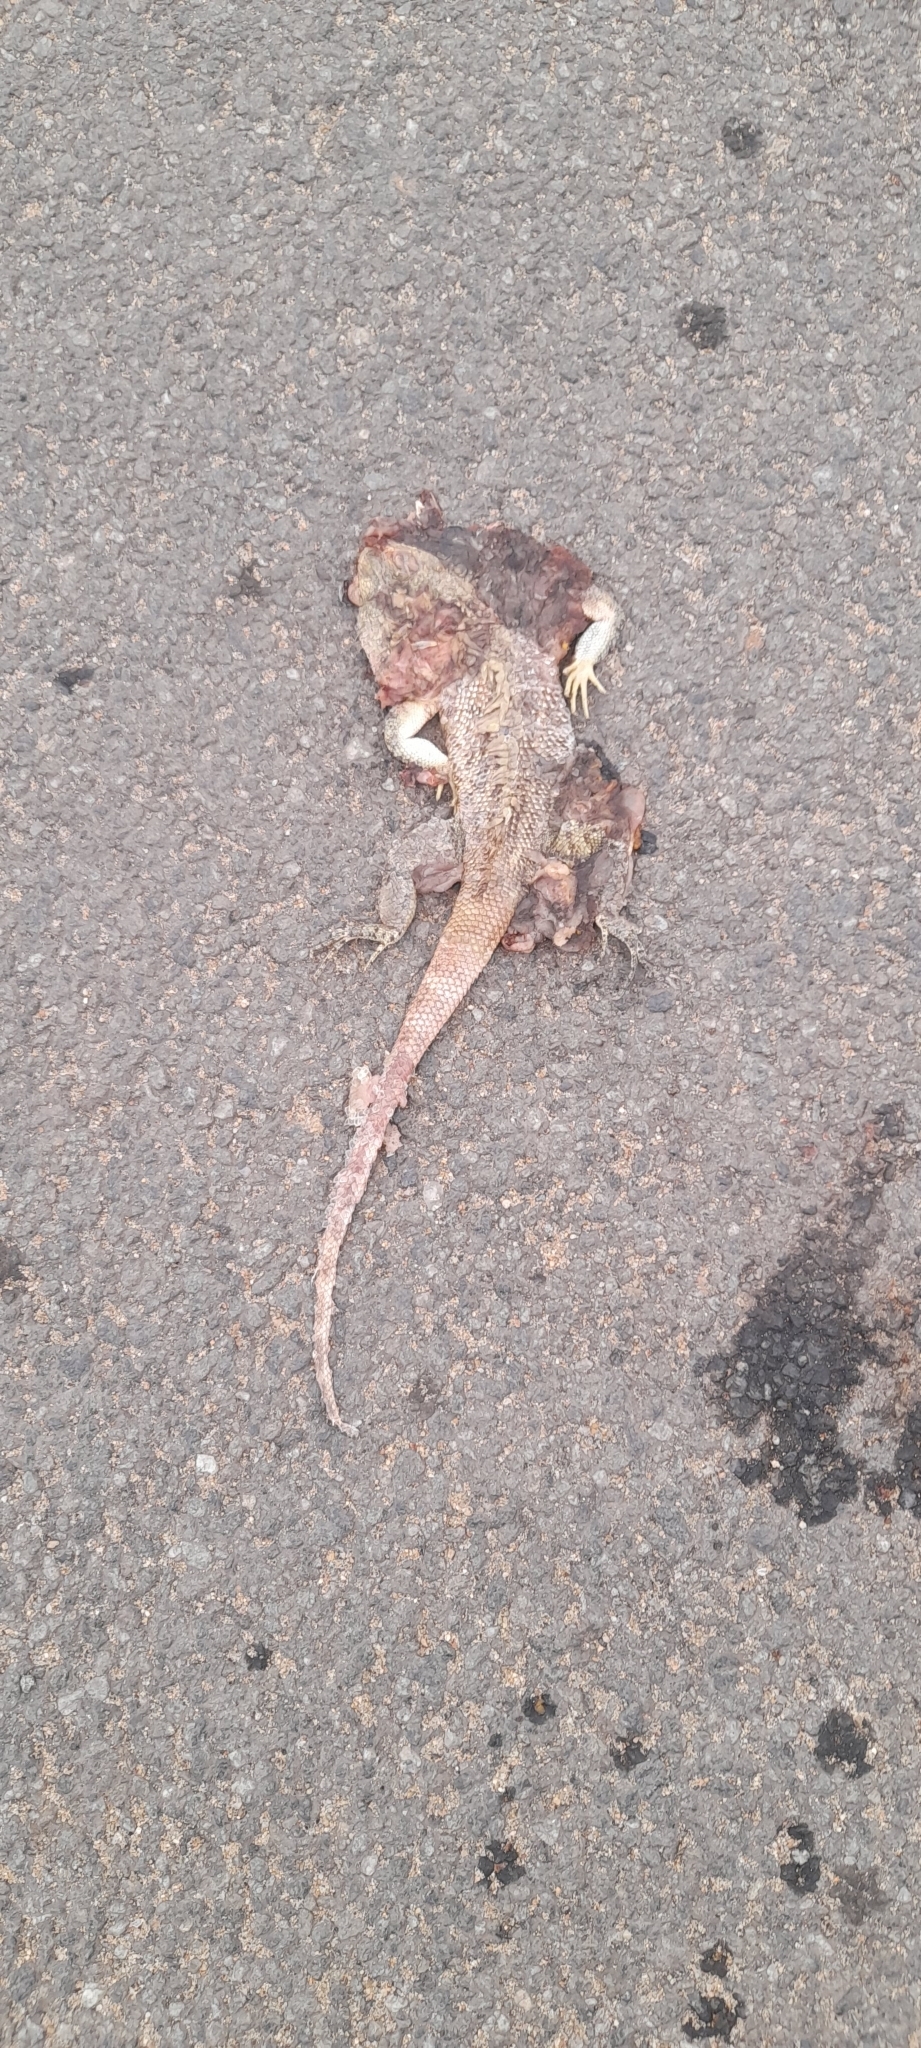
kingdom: Animalia
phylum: Chordata
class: Squamata
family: Agamidae
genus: Calotes
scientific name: Calotes versicolor
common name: Oriental garden lizard
